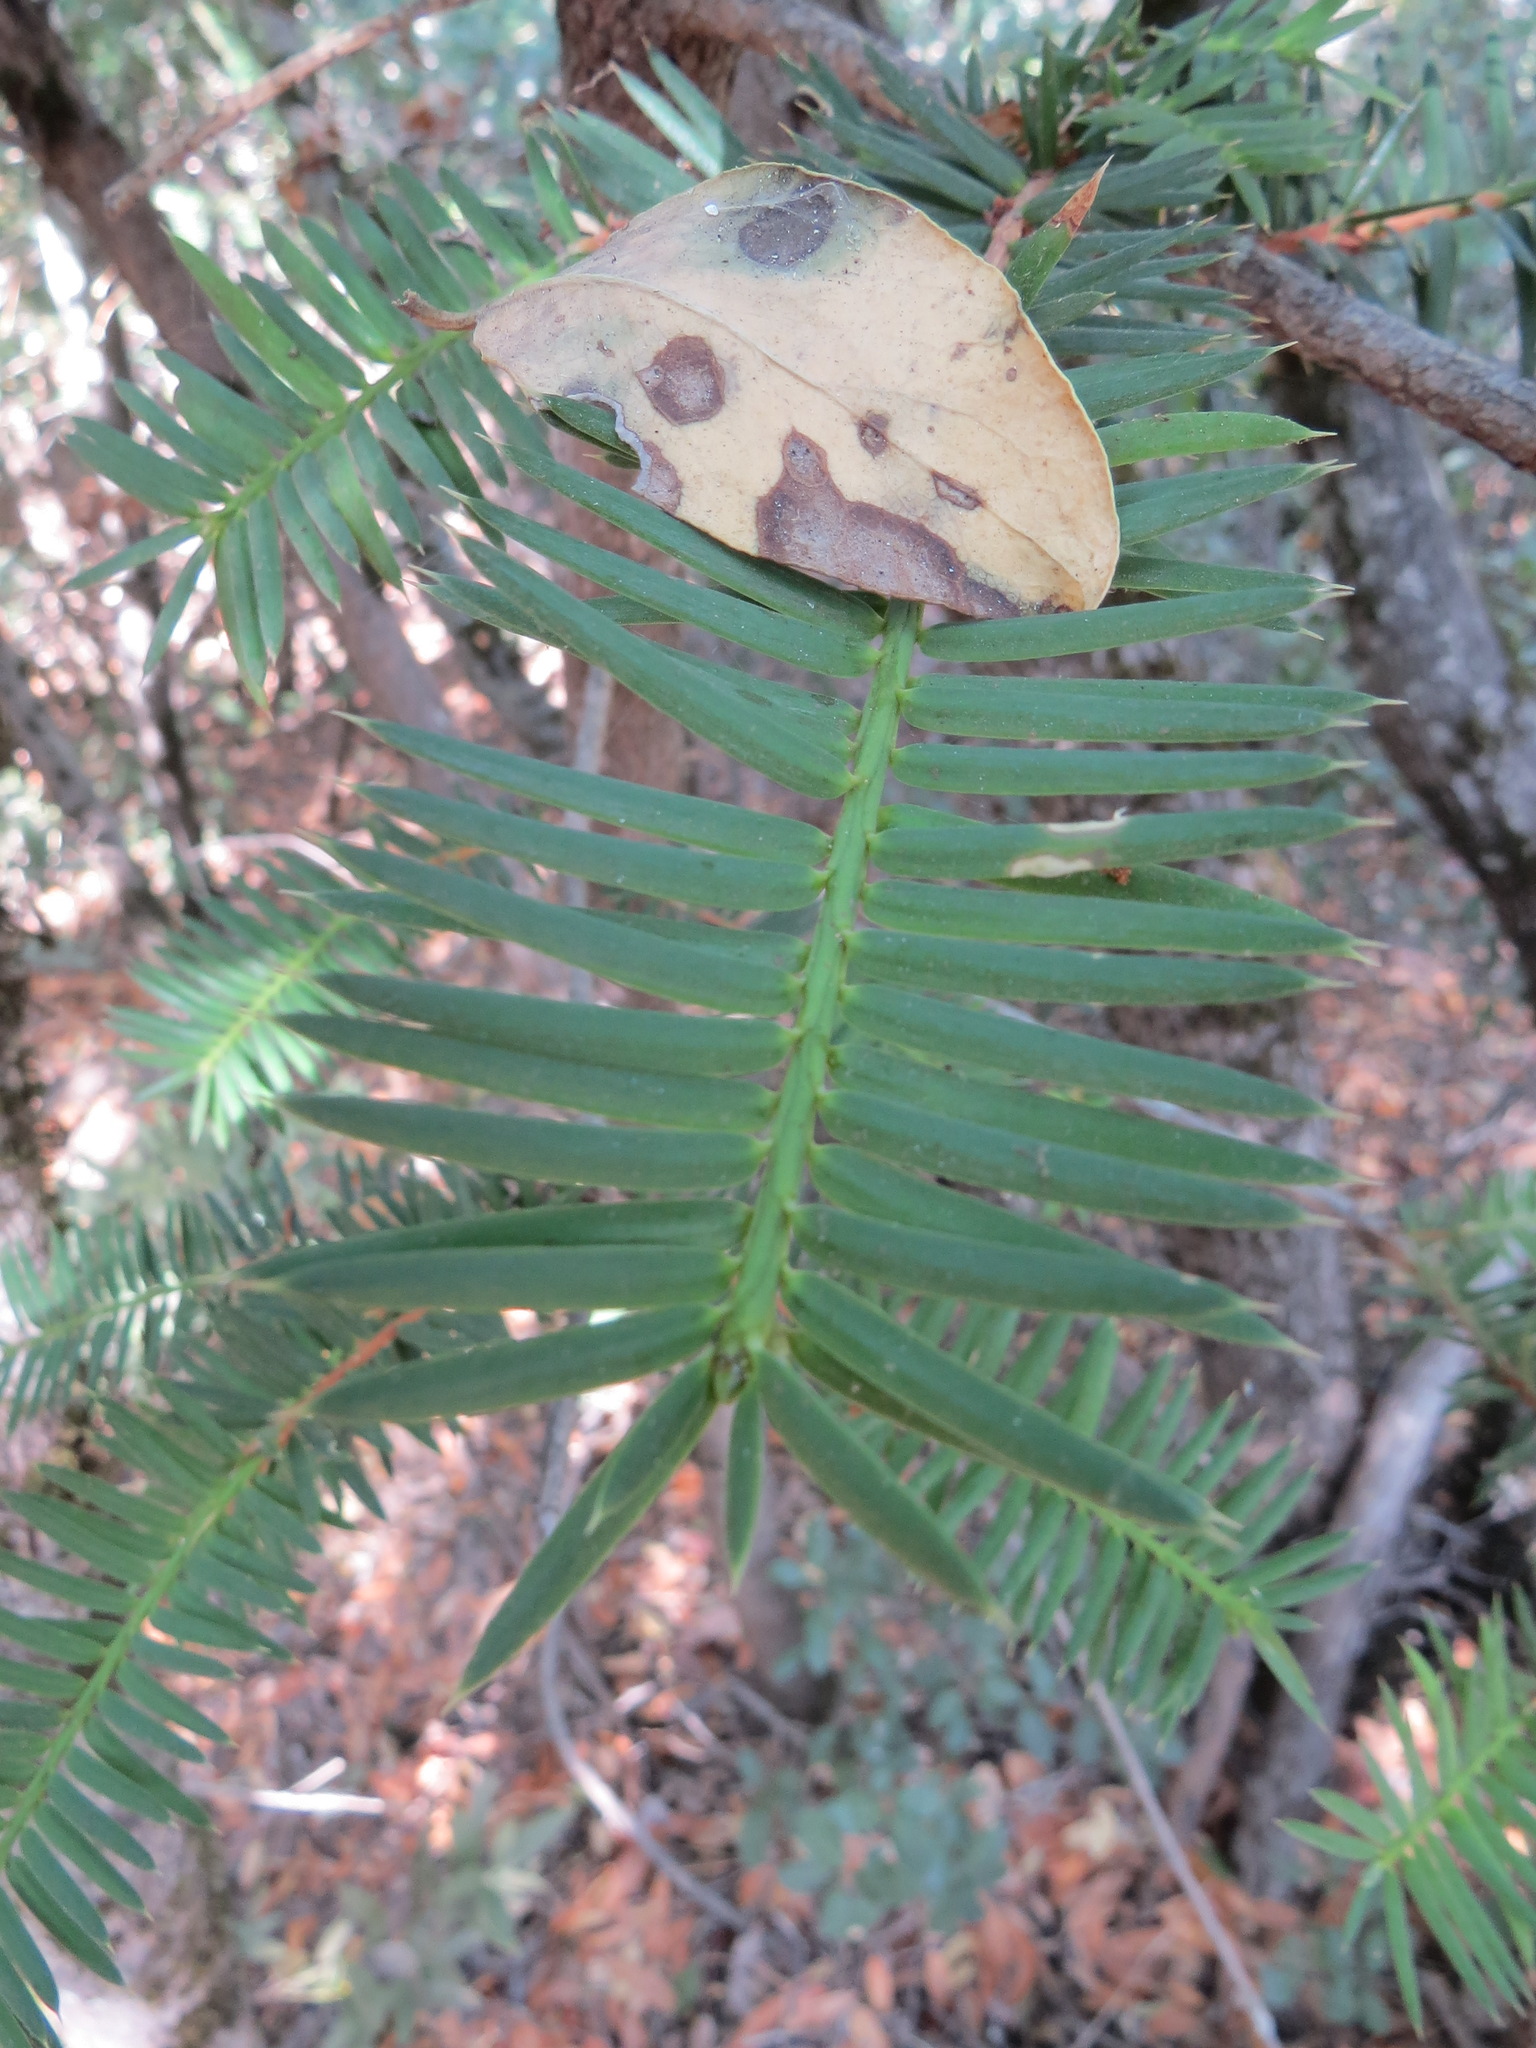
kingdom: Plantae
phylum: Tracheophyta
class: Pinopsida
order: Pinales
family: Taxaceae
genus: Torreya
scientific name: Torreya californica
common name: California torreya
